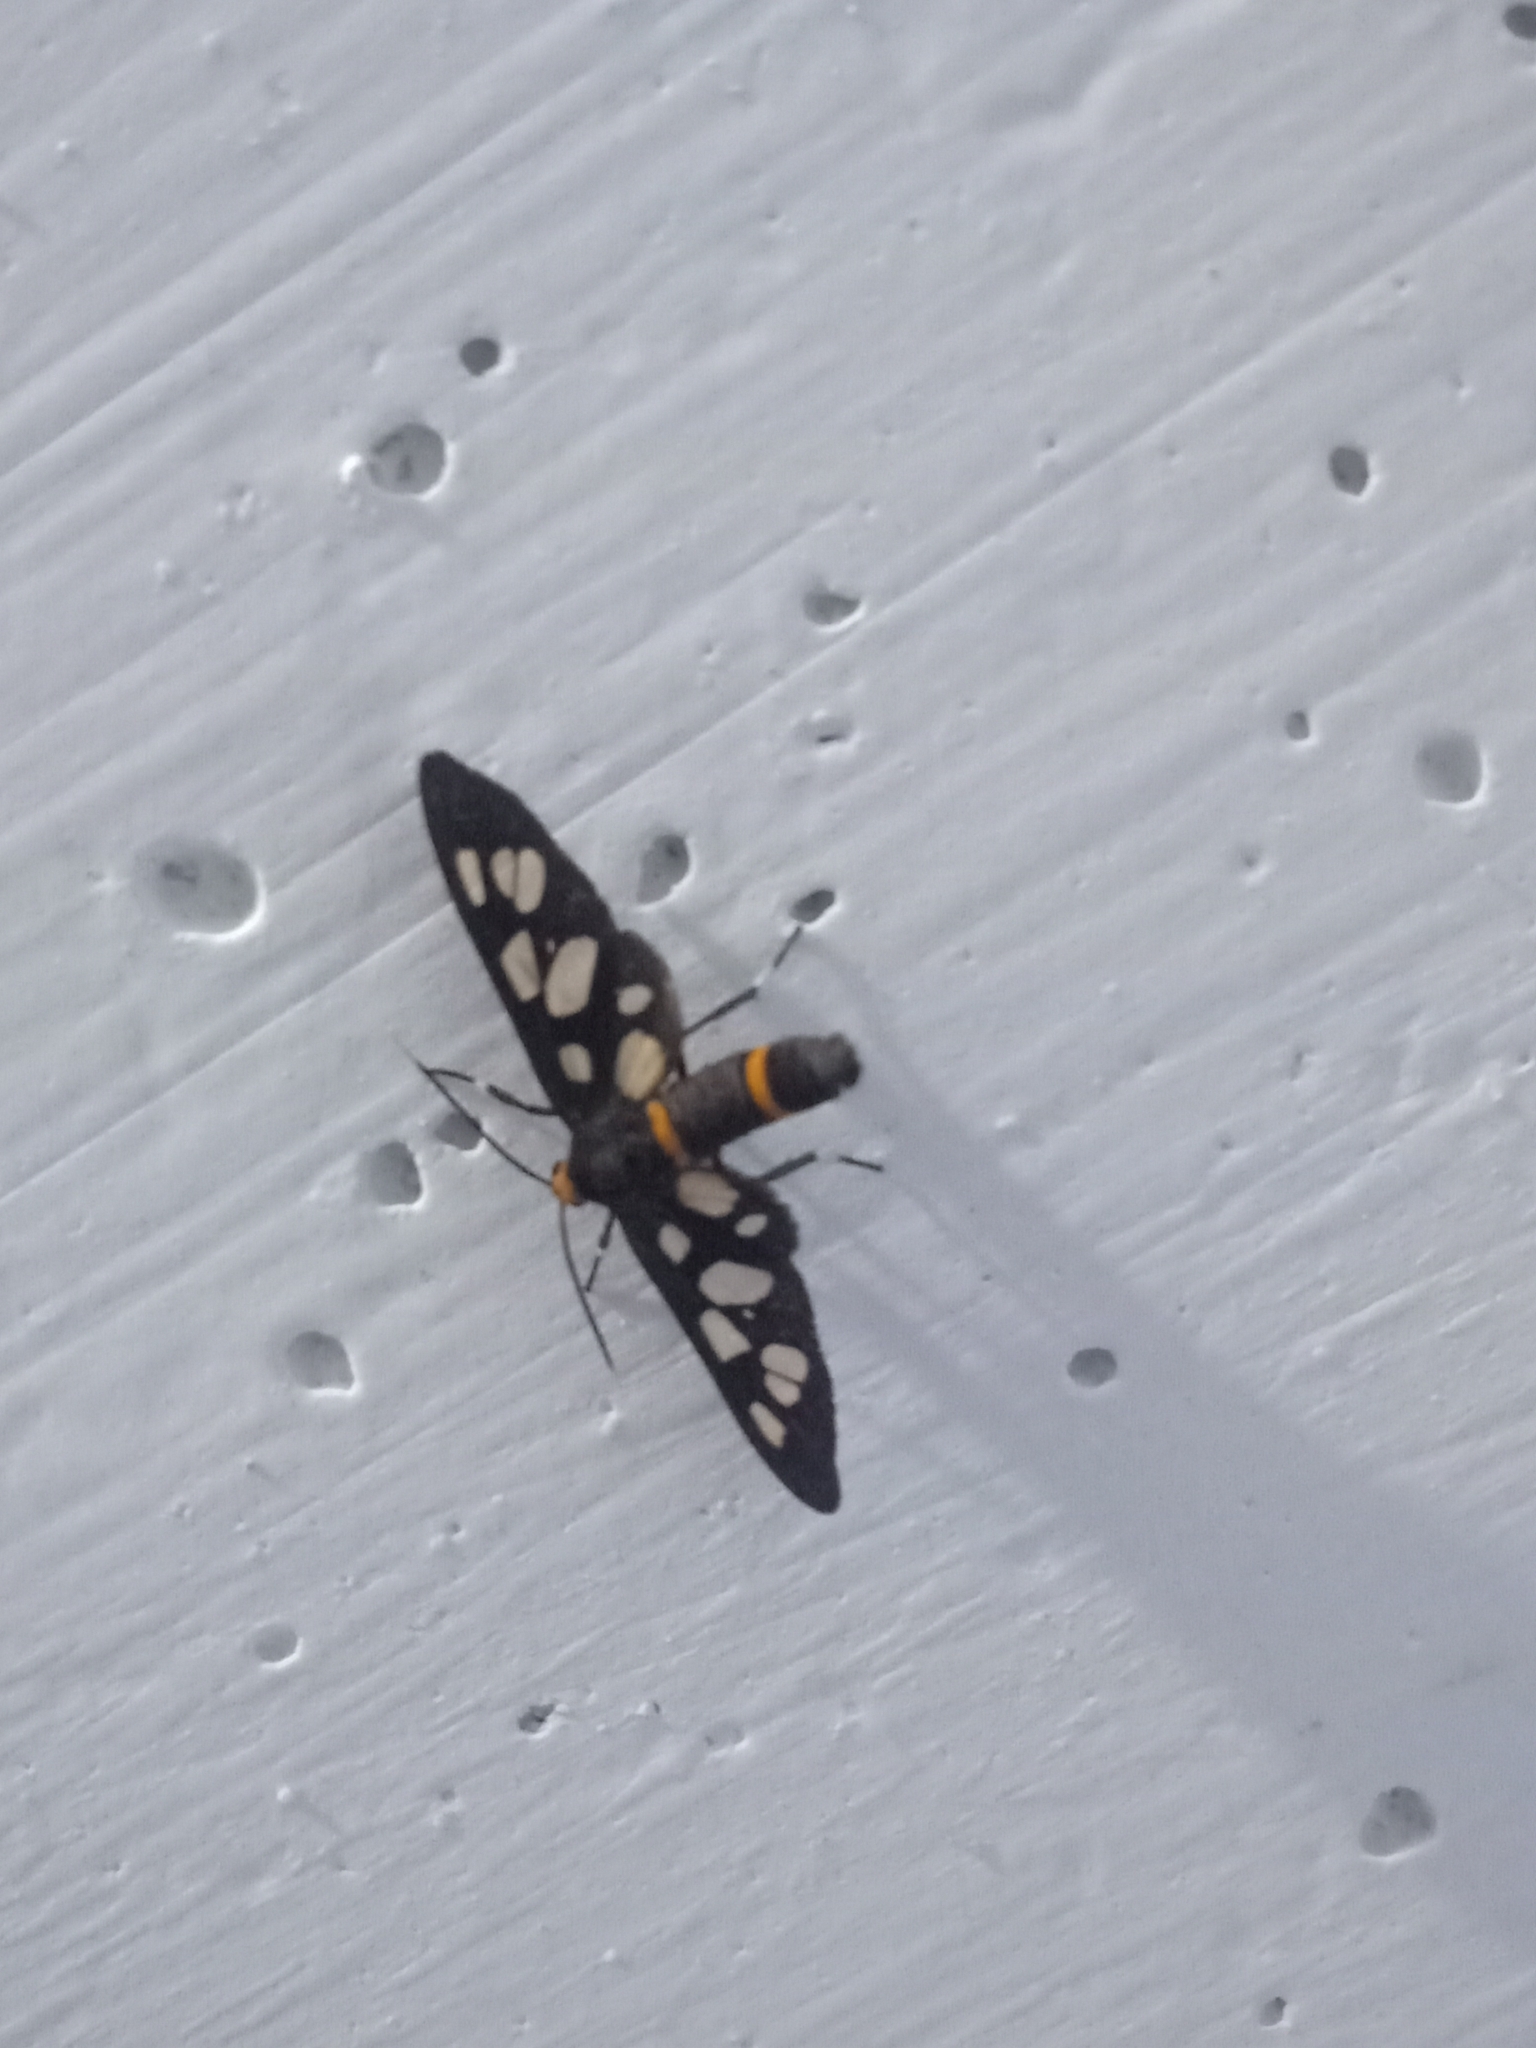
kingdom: Animalia
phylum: Arthropoda
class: Insecta
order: Lepidoptera
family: Erebidae
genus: Amata
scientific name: Amata cyssea
